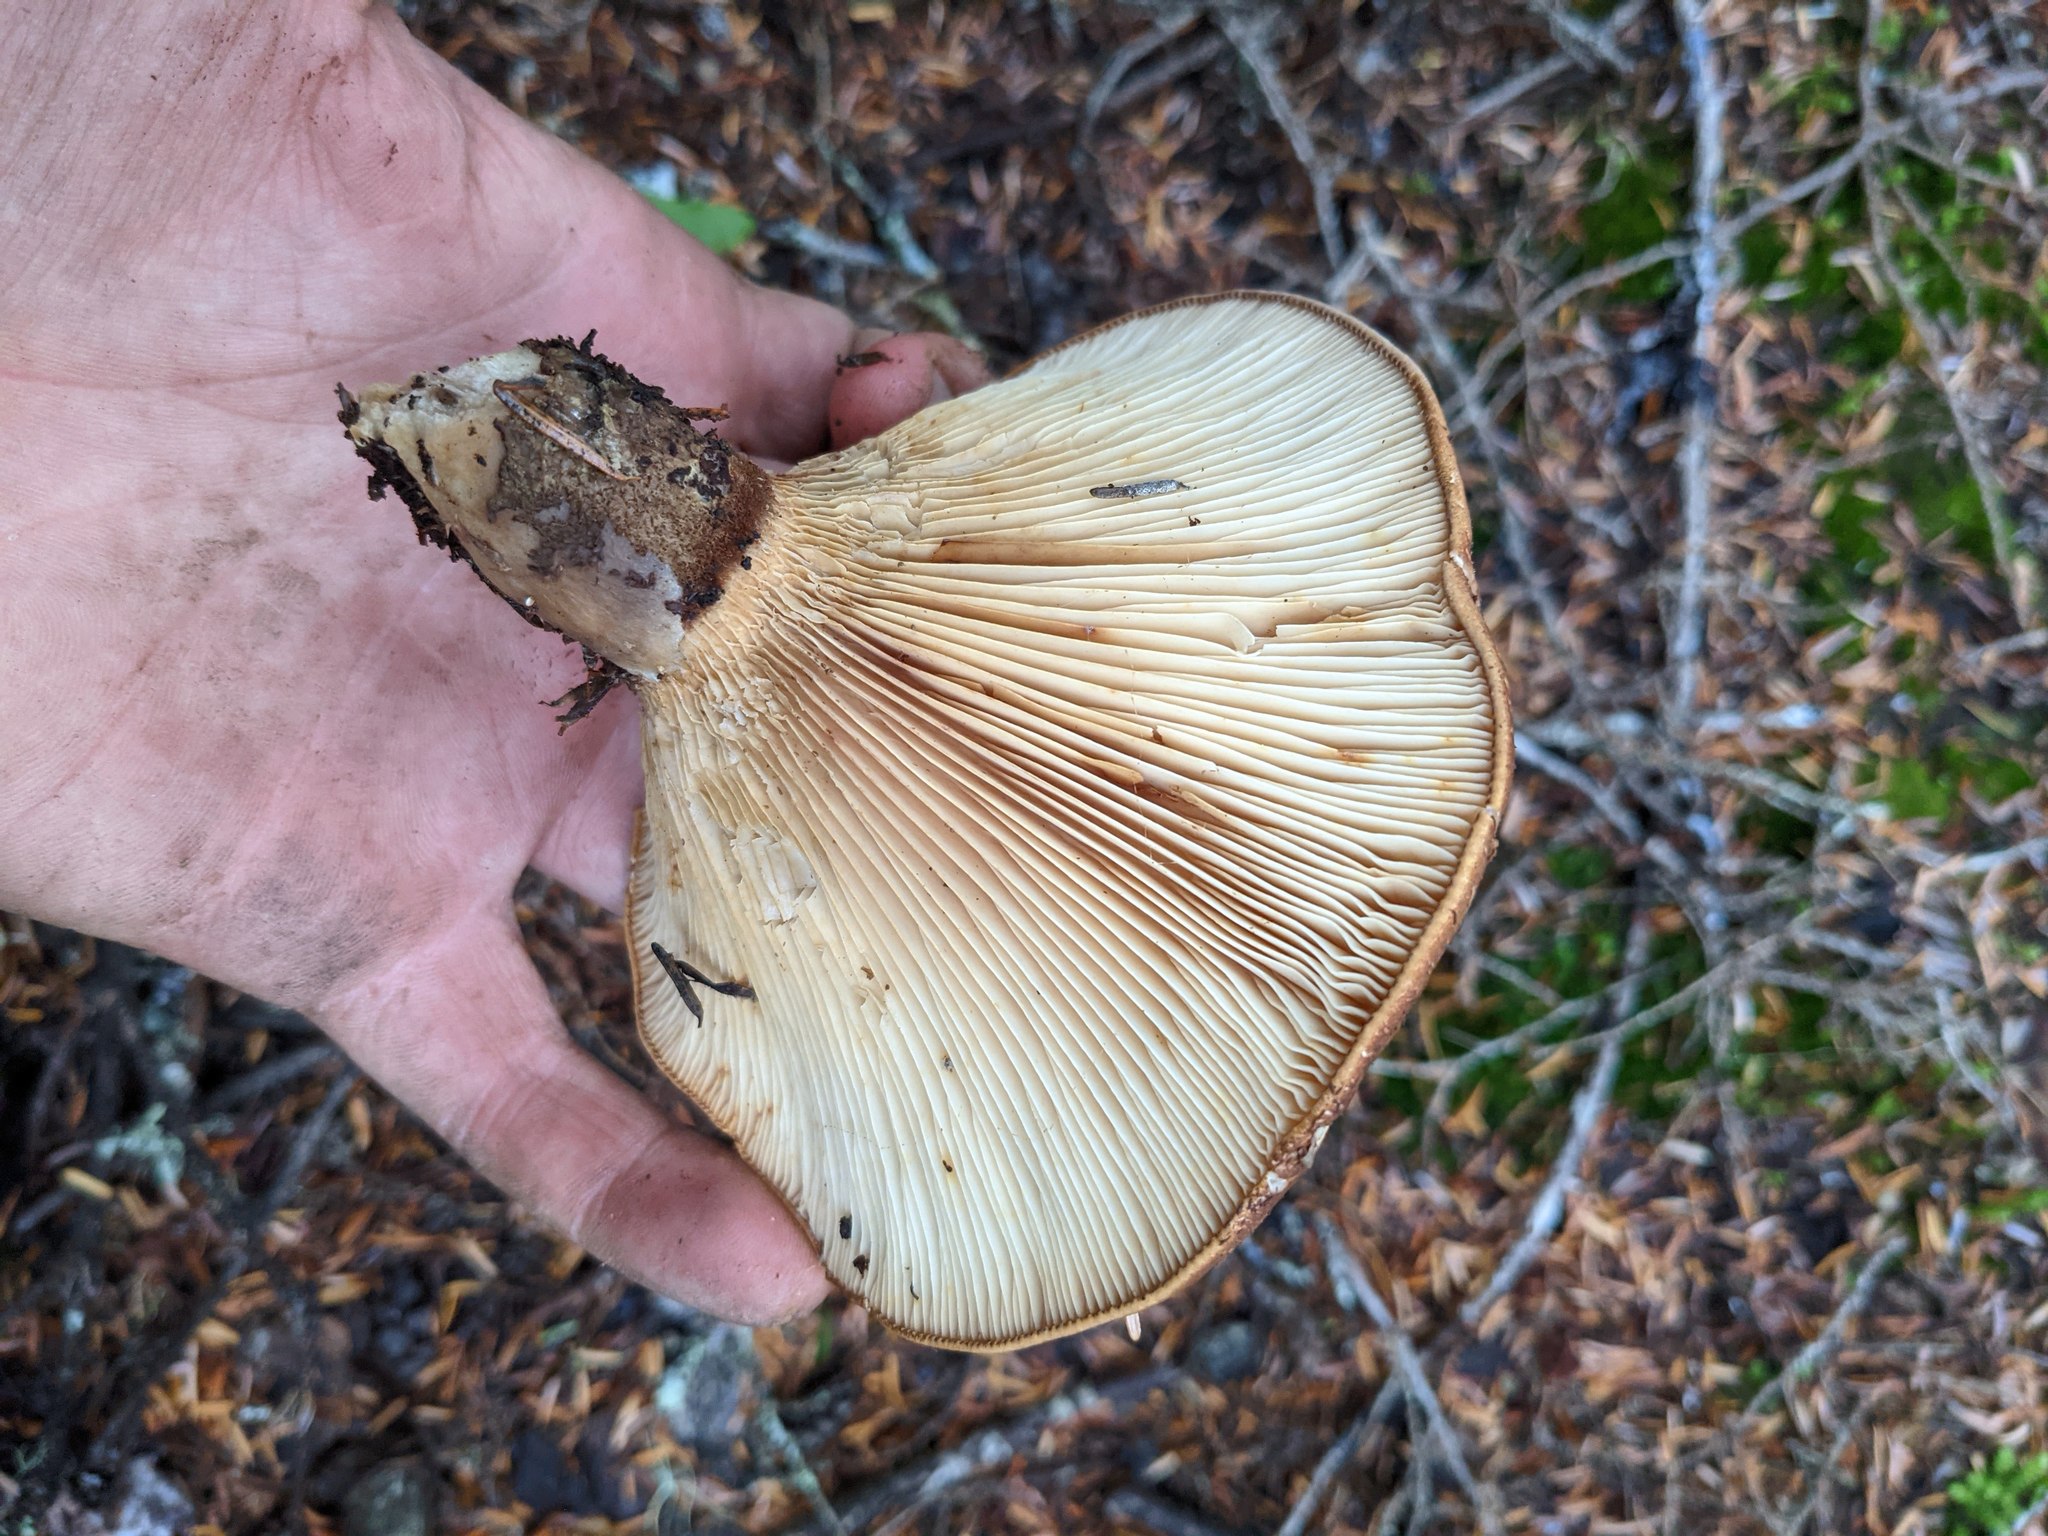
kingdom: Fungi
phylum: Basidiomycota
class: Agaricomycetes
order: Boletales
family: Tapinellaceae
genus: Tapinella
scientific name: Tapinella atrotomentosa
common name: Velvet rollrim
